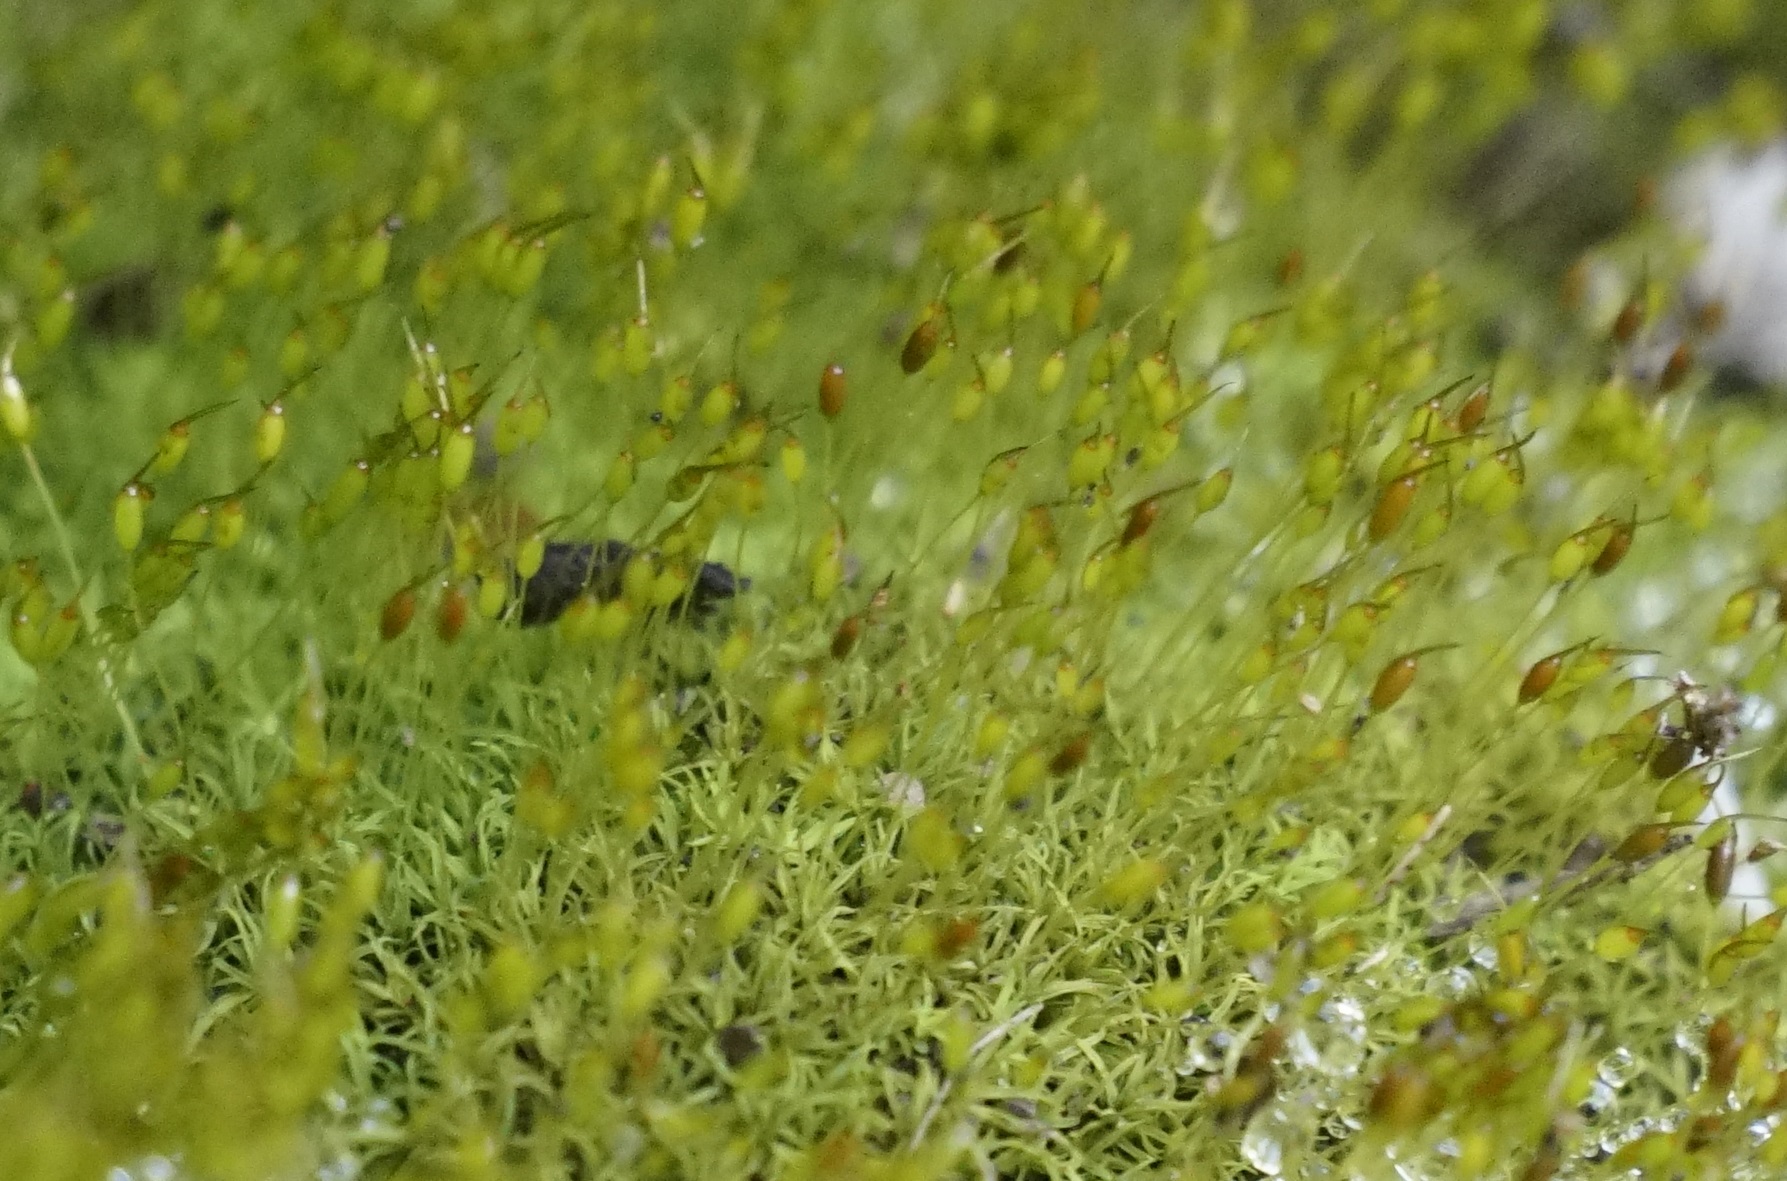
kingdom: Plantae
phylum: Bryophyta
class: Bryopsida
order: Pottiales
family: Pottiaceae
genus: Weissia
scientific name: Weissia
